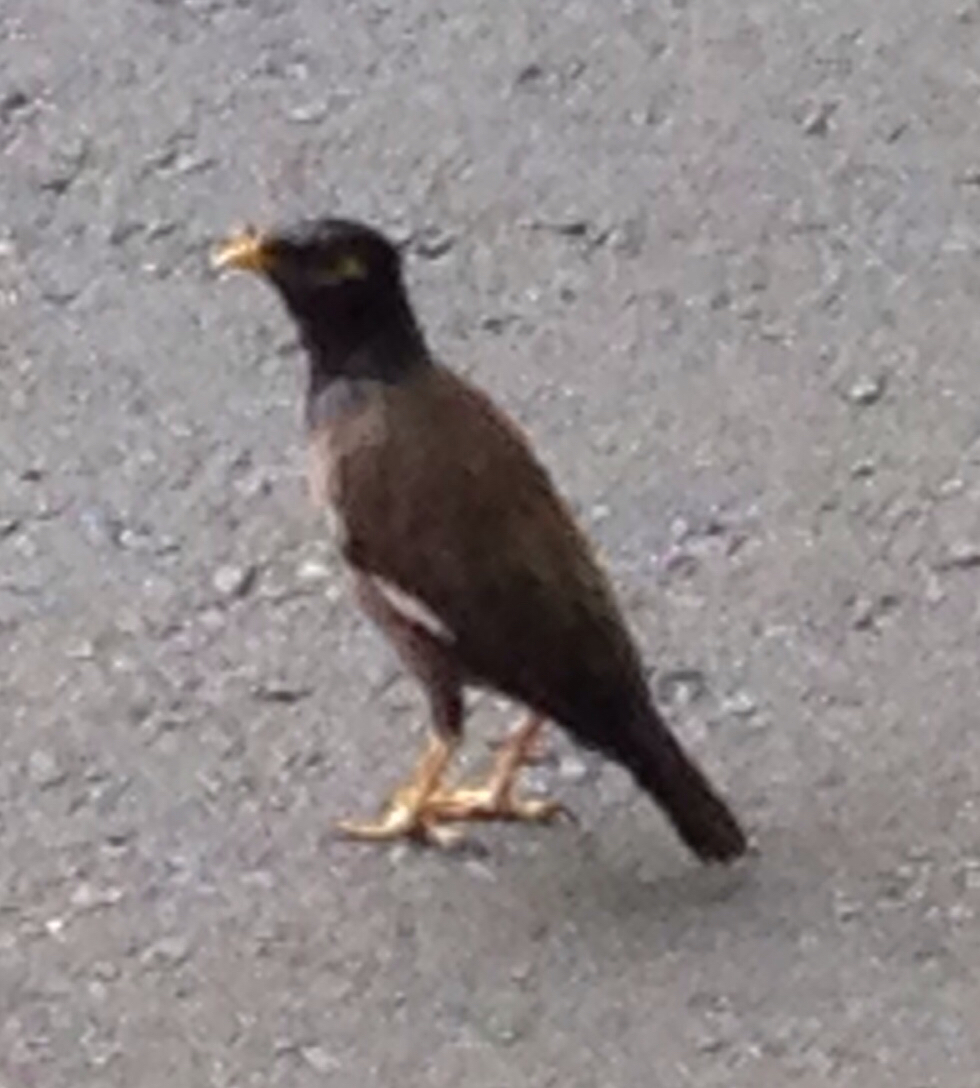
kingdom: Animalia
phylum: Chordata
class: Aves
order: Passeriformes
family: Sturnidae
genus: Acridotheres
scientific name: Acridotheres tristis
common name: Common myna
